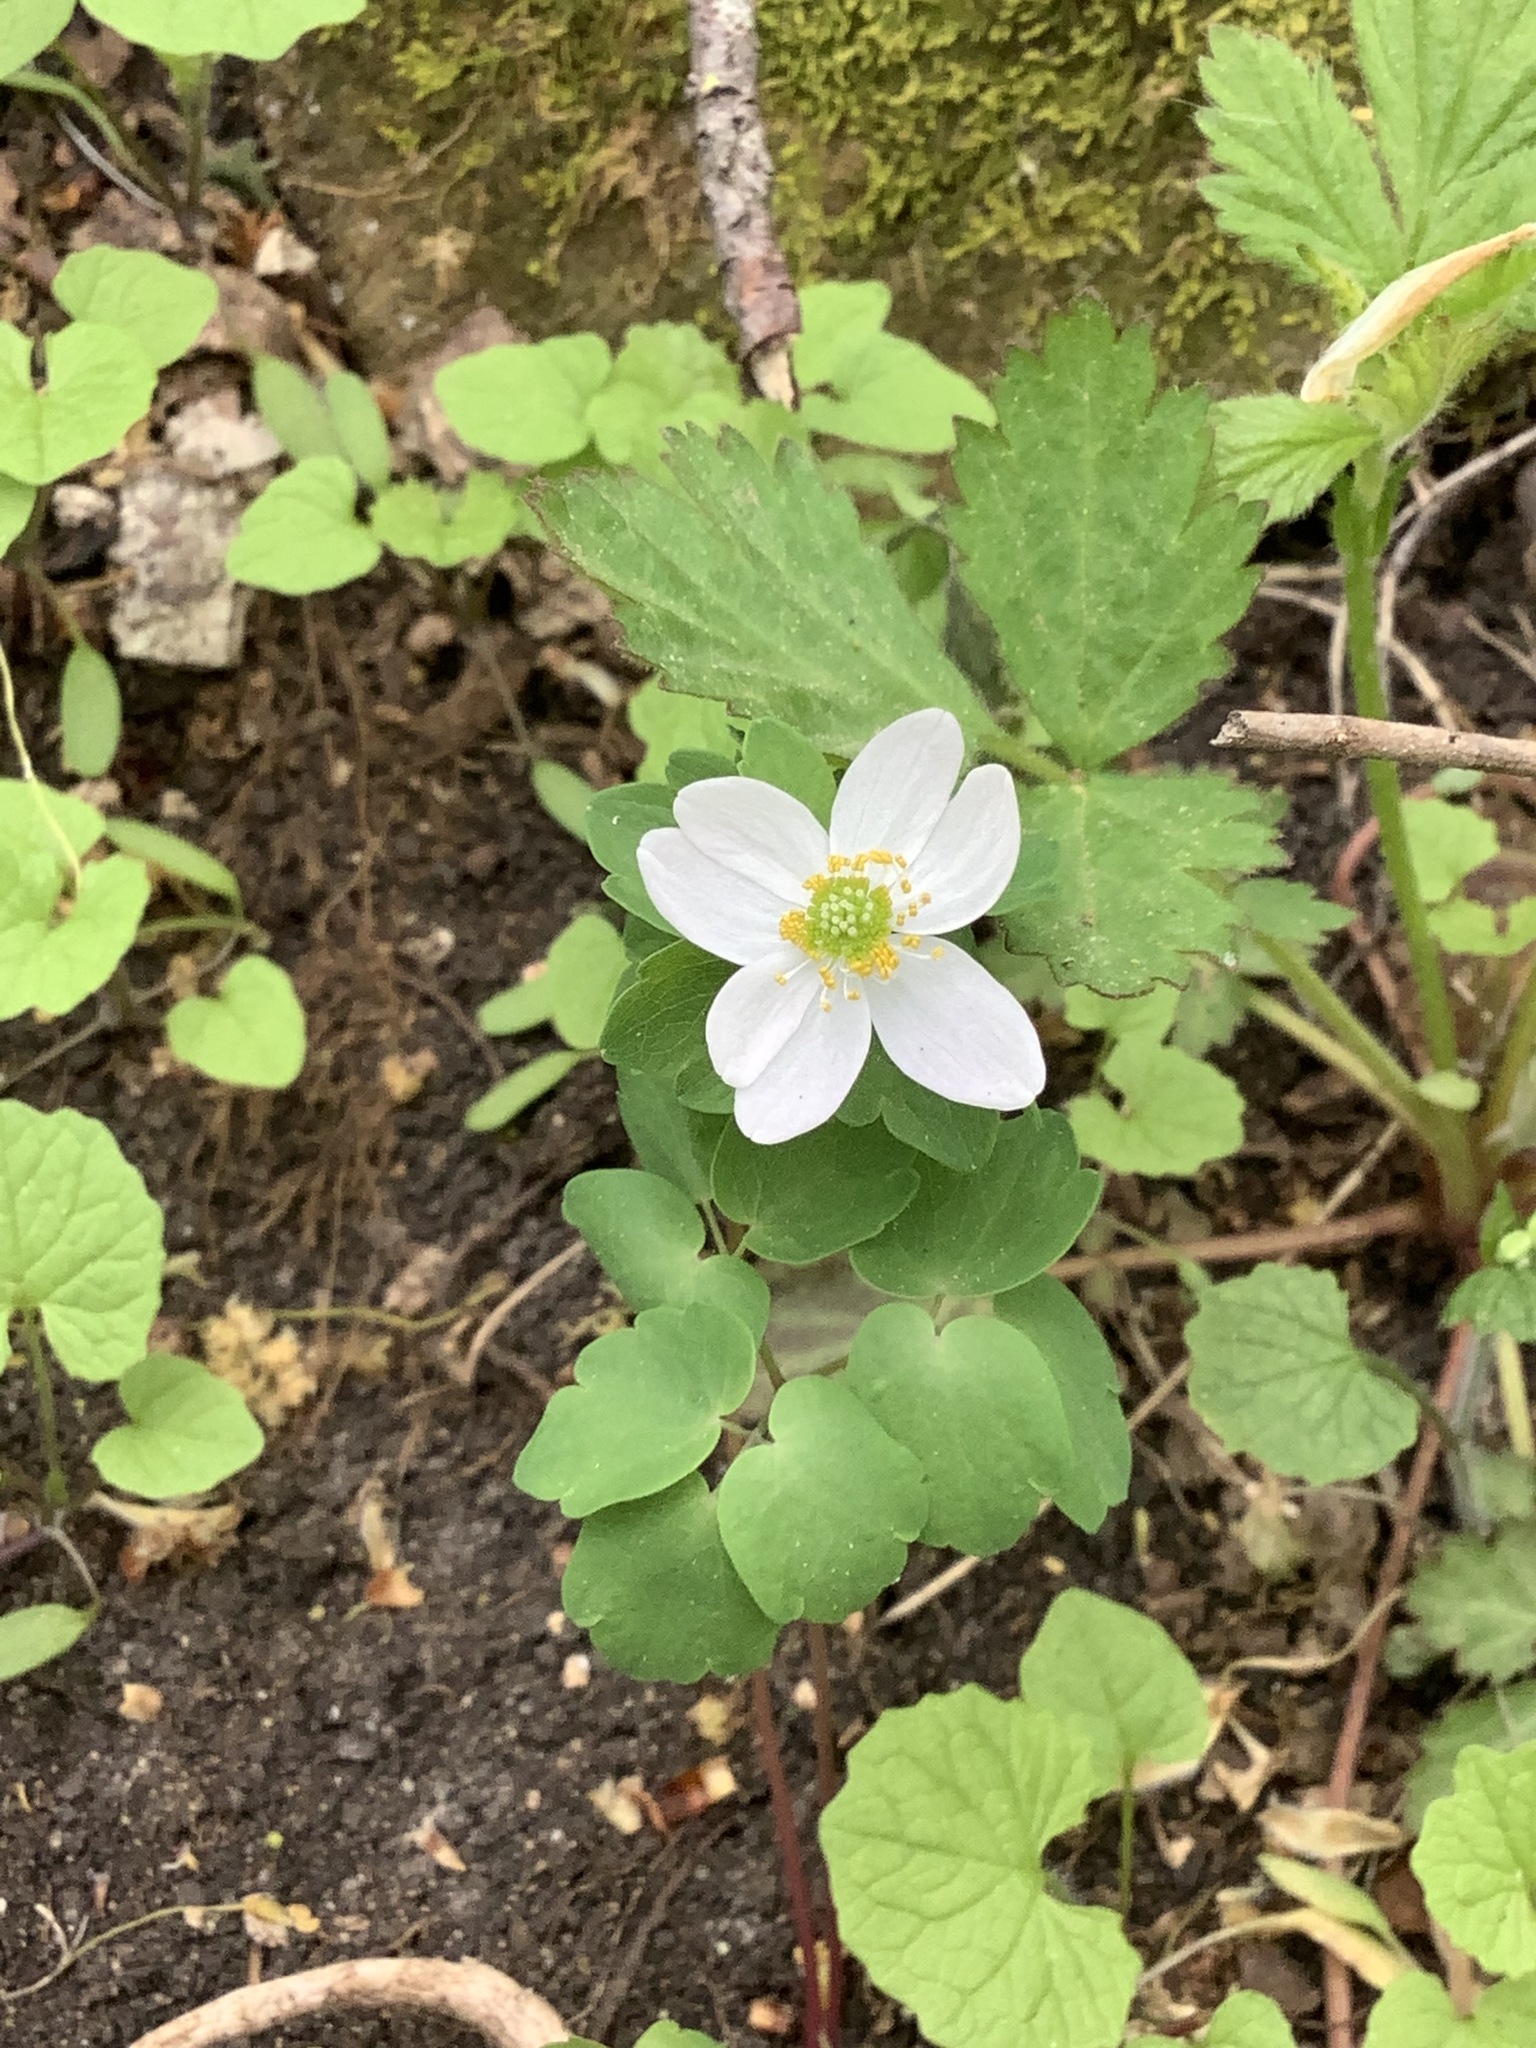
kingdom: Plantae
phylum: Tracheophyta
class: Magnoliopsida
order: Ranunculales
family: Ranunculaceae
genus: Thalictrum
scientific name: Thalictrum thalictroides
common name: Rue-anemone
